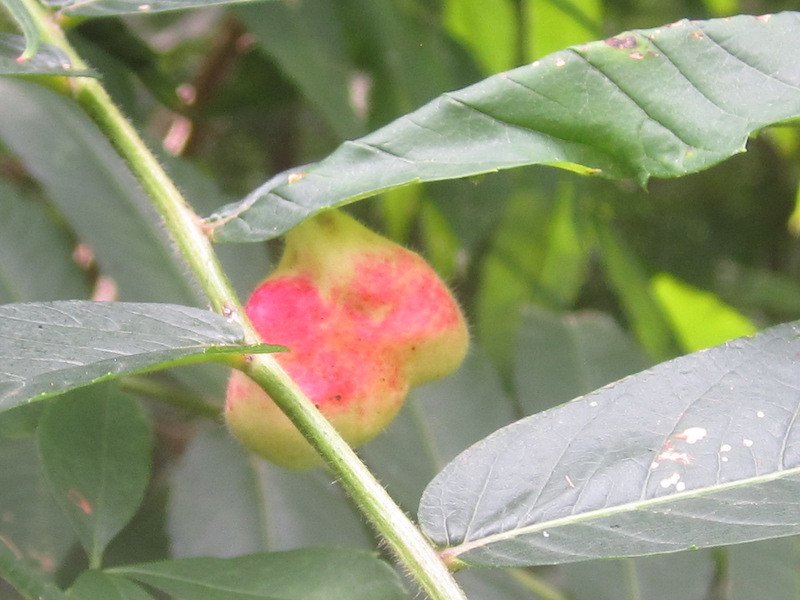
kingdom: Animalia
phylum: Arthropoda
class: Insecta
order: Hemiptera
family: Aphididae
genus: Melaphis
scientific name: Melaphis rhois
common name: Sumac gall aphid
